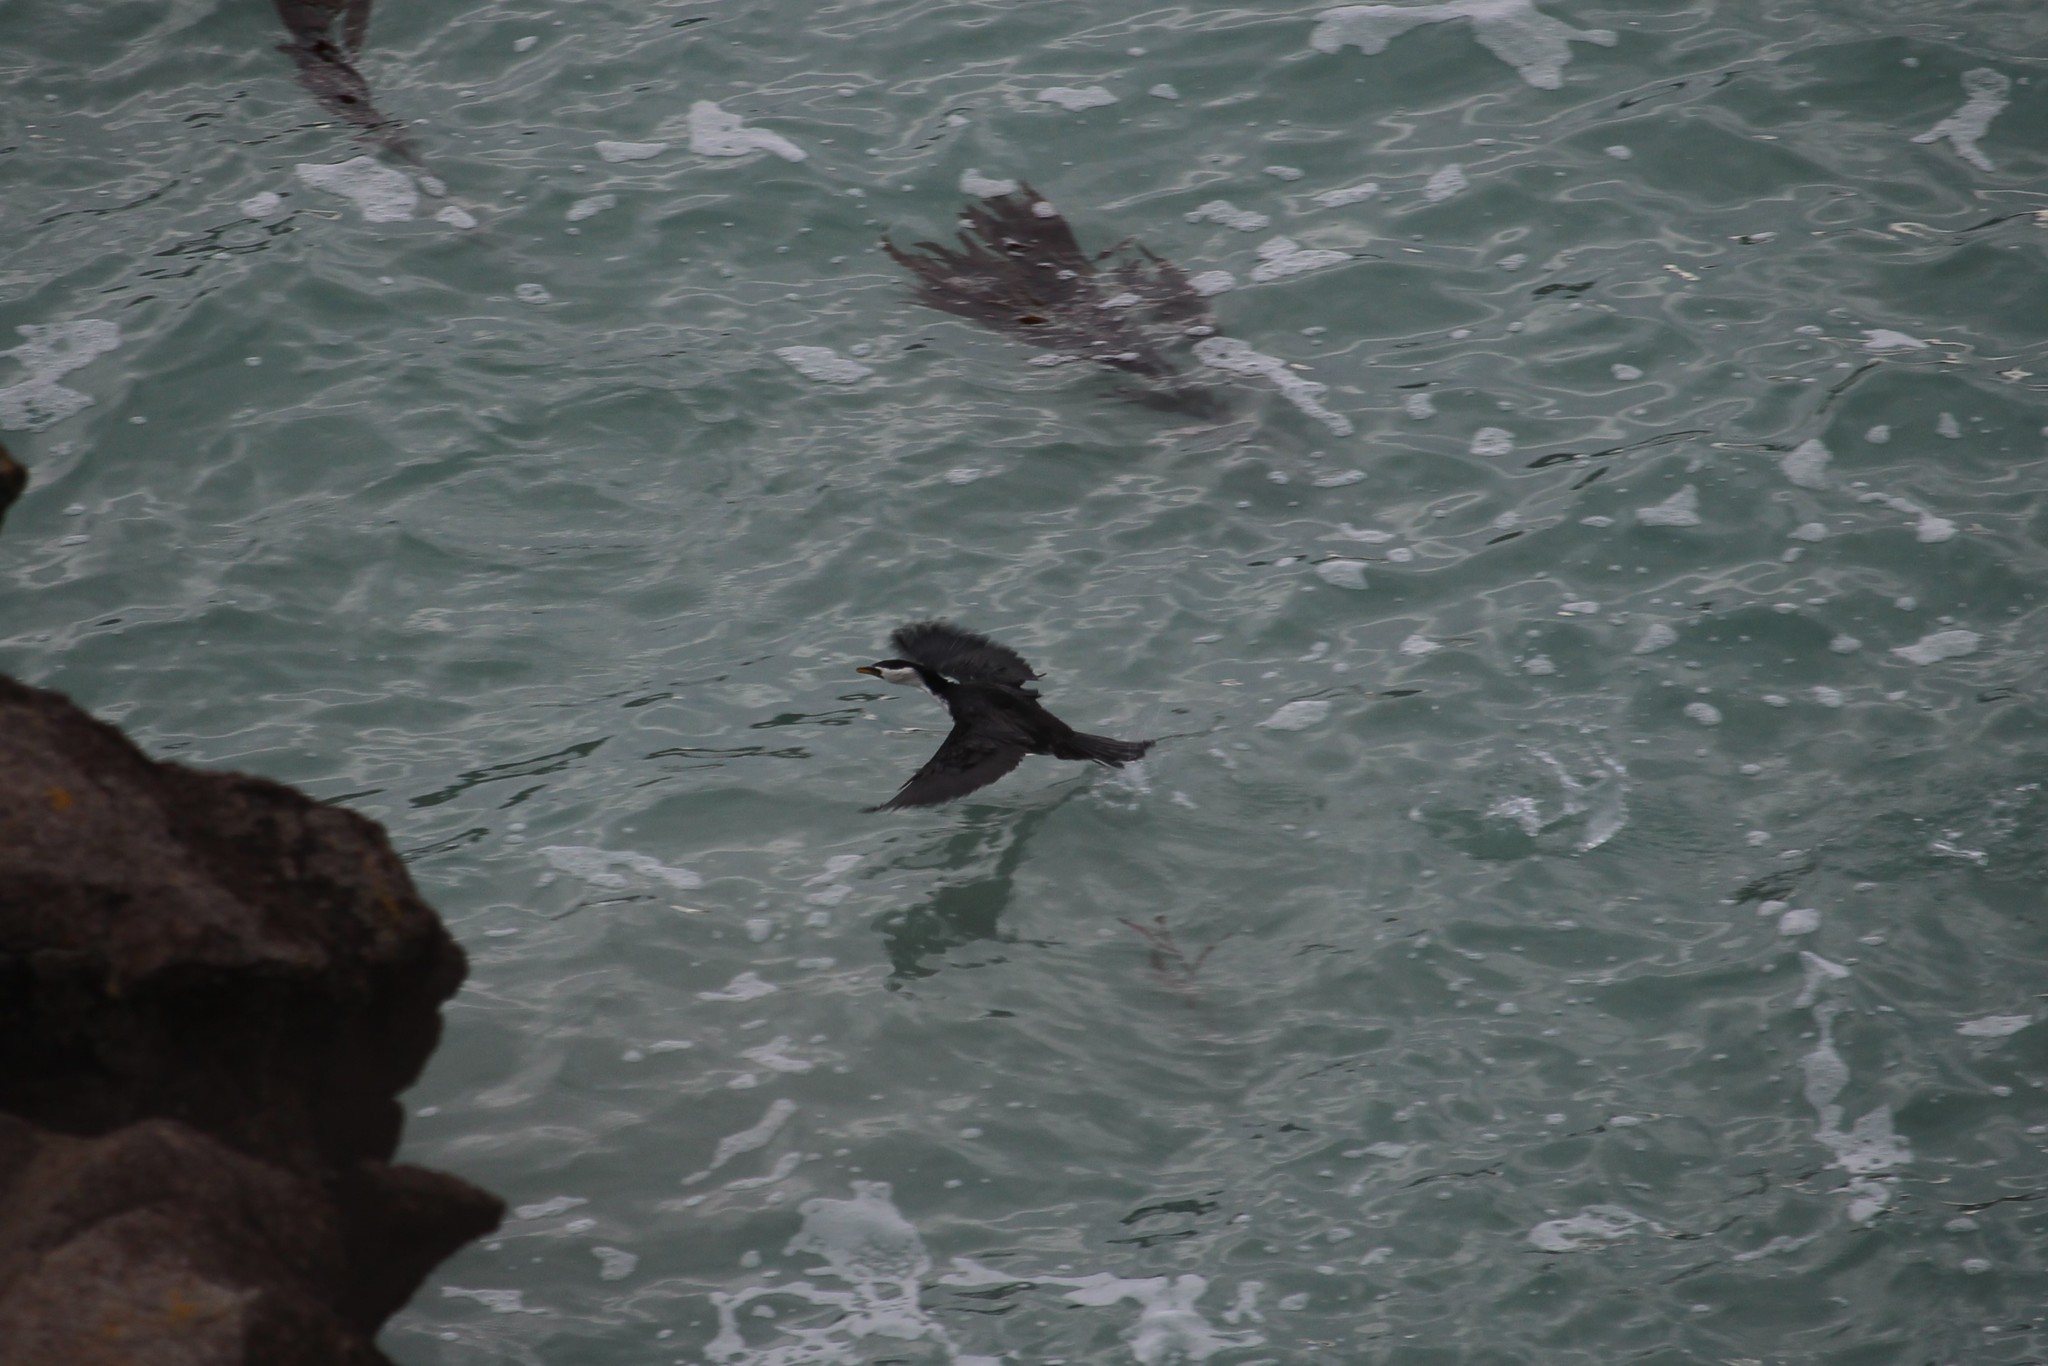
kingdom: Animalia
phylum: Chordata
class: Aves
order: Suliformes
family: Phalacrocoracidae
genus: Microcarbo
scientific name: Microcarbo melanoleucos
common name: Little pied cormorant
